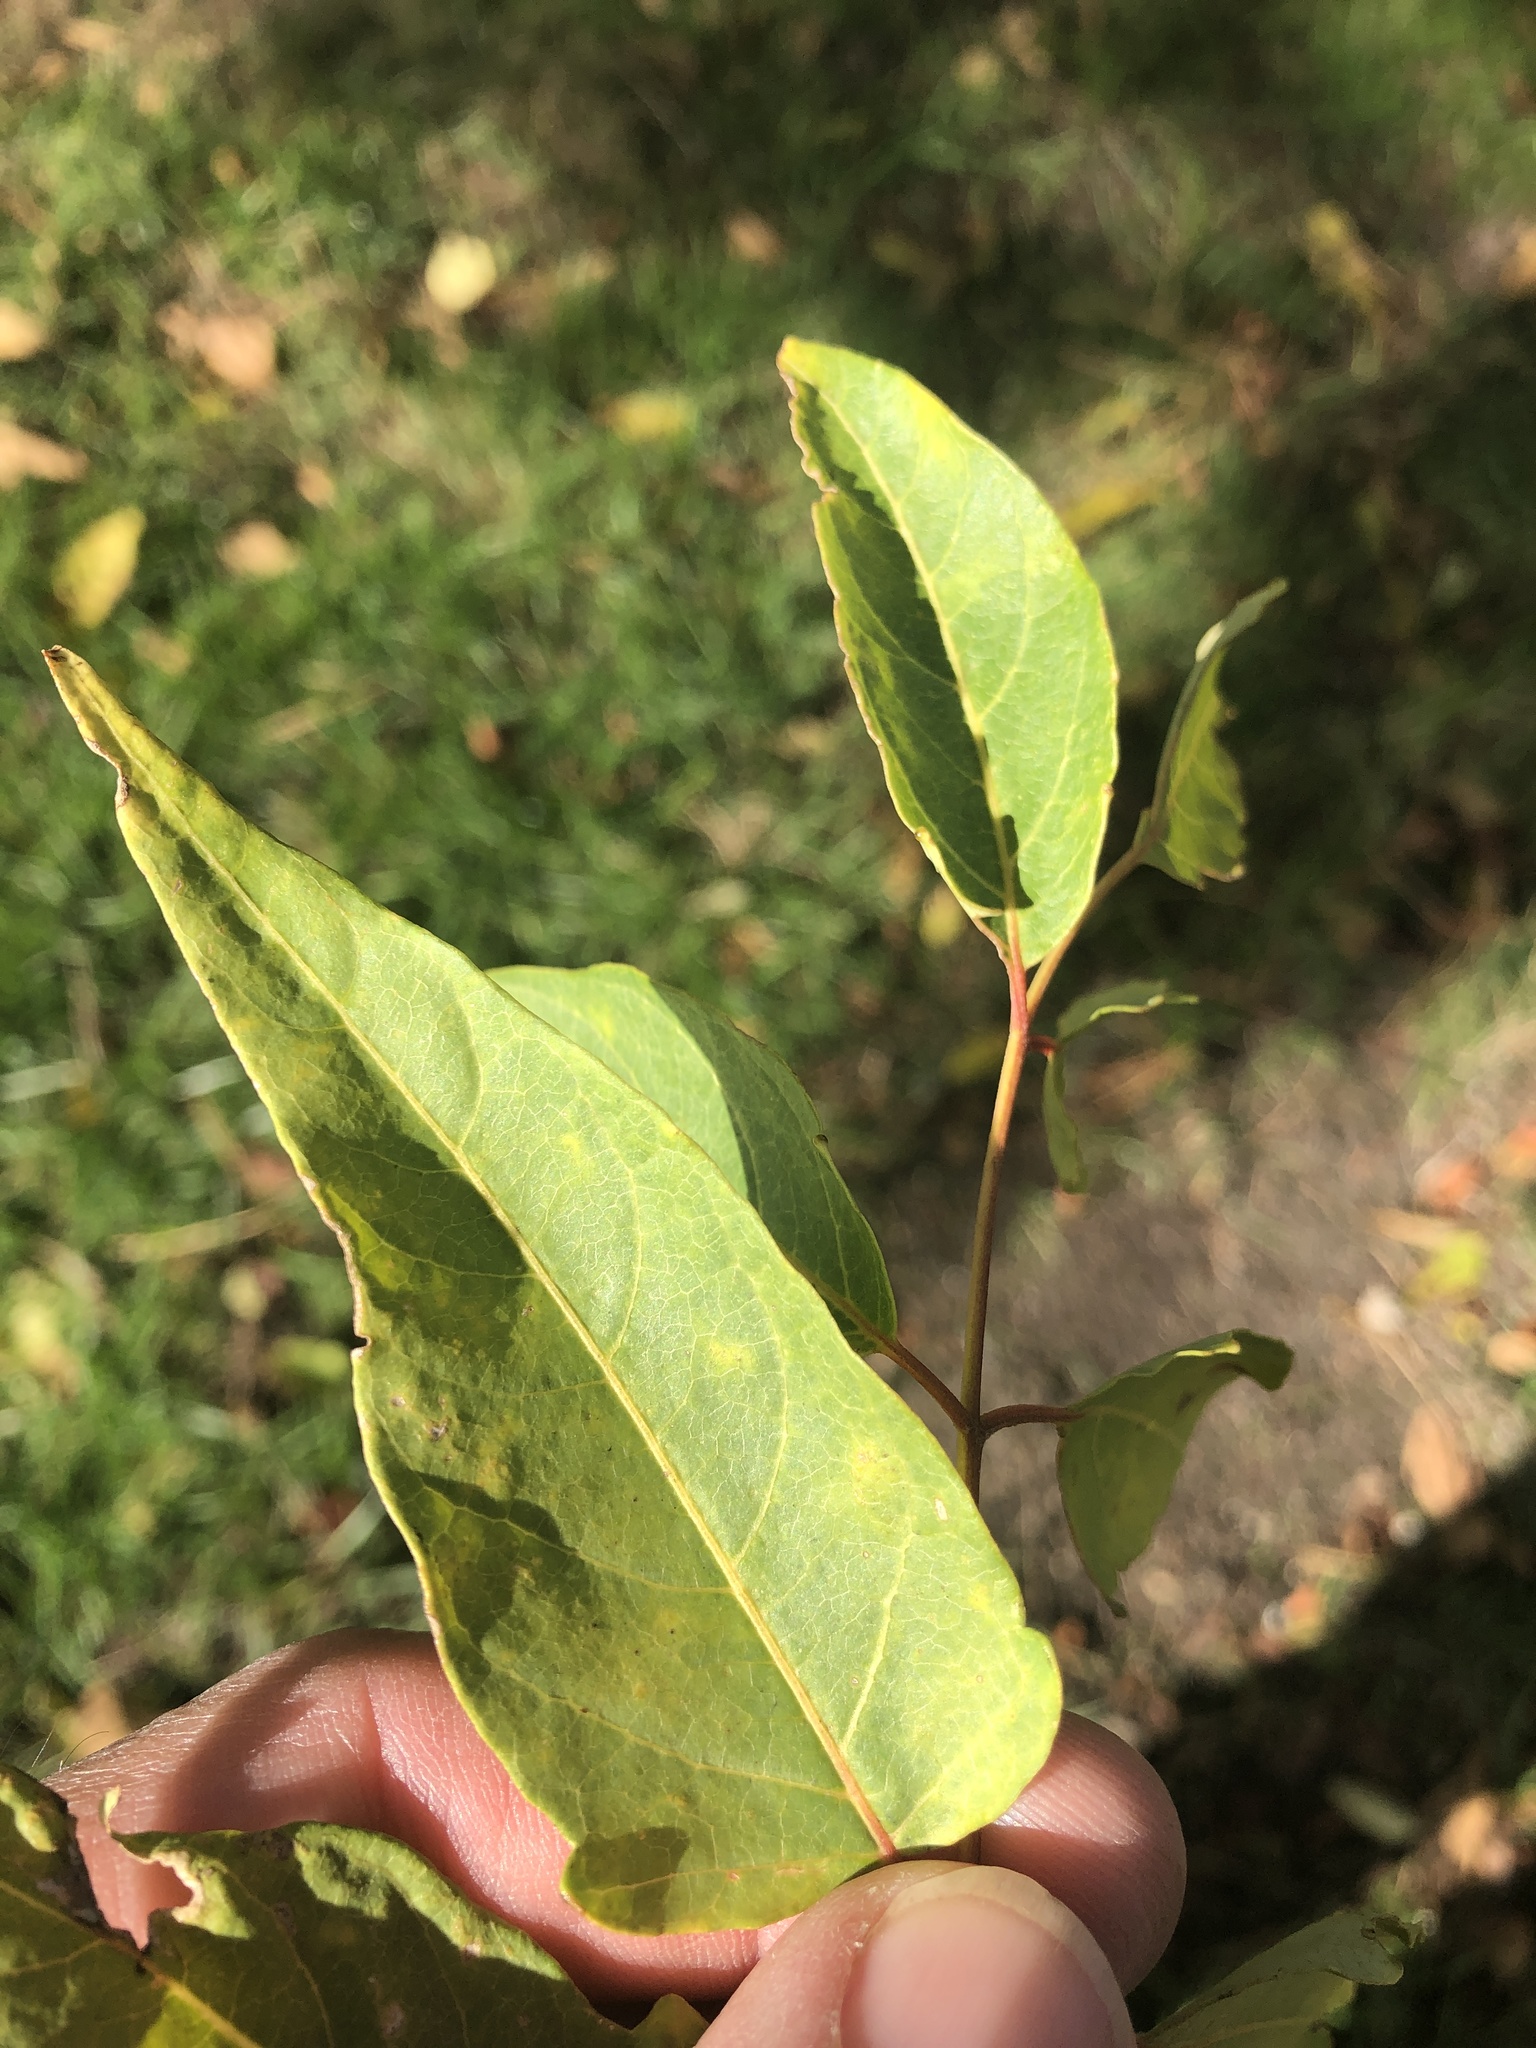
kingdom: Plantae
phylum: Tracheophyta
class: Magnoliopsida
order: Sapindales
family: Simaroubaceae
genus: Ailanthus
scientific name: Ailanthus altissima
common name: Tree-of-heaven
